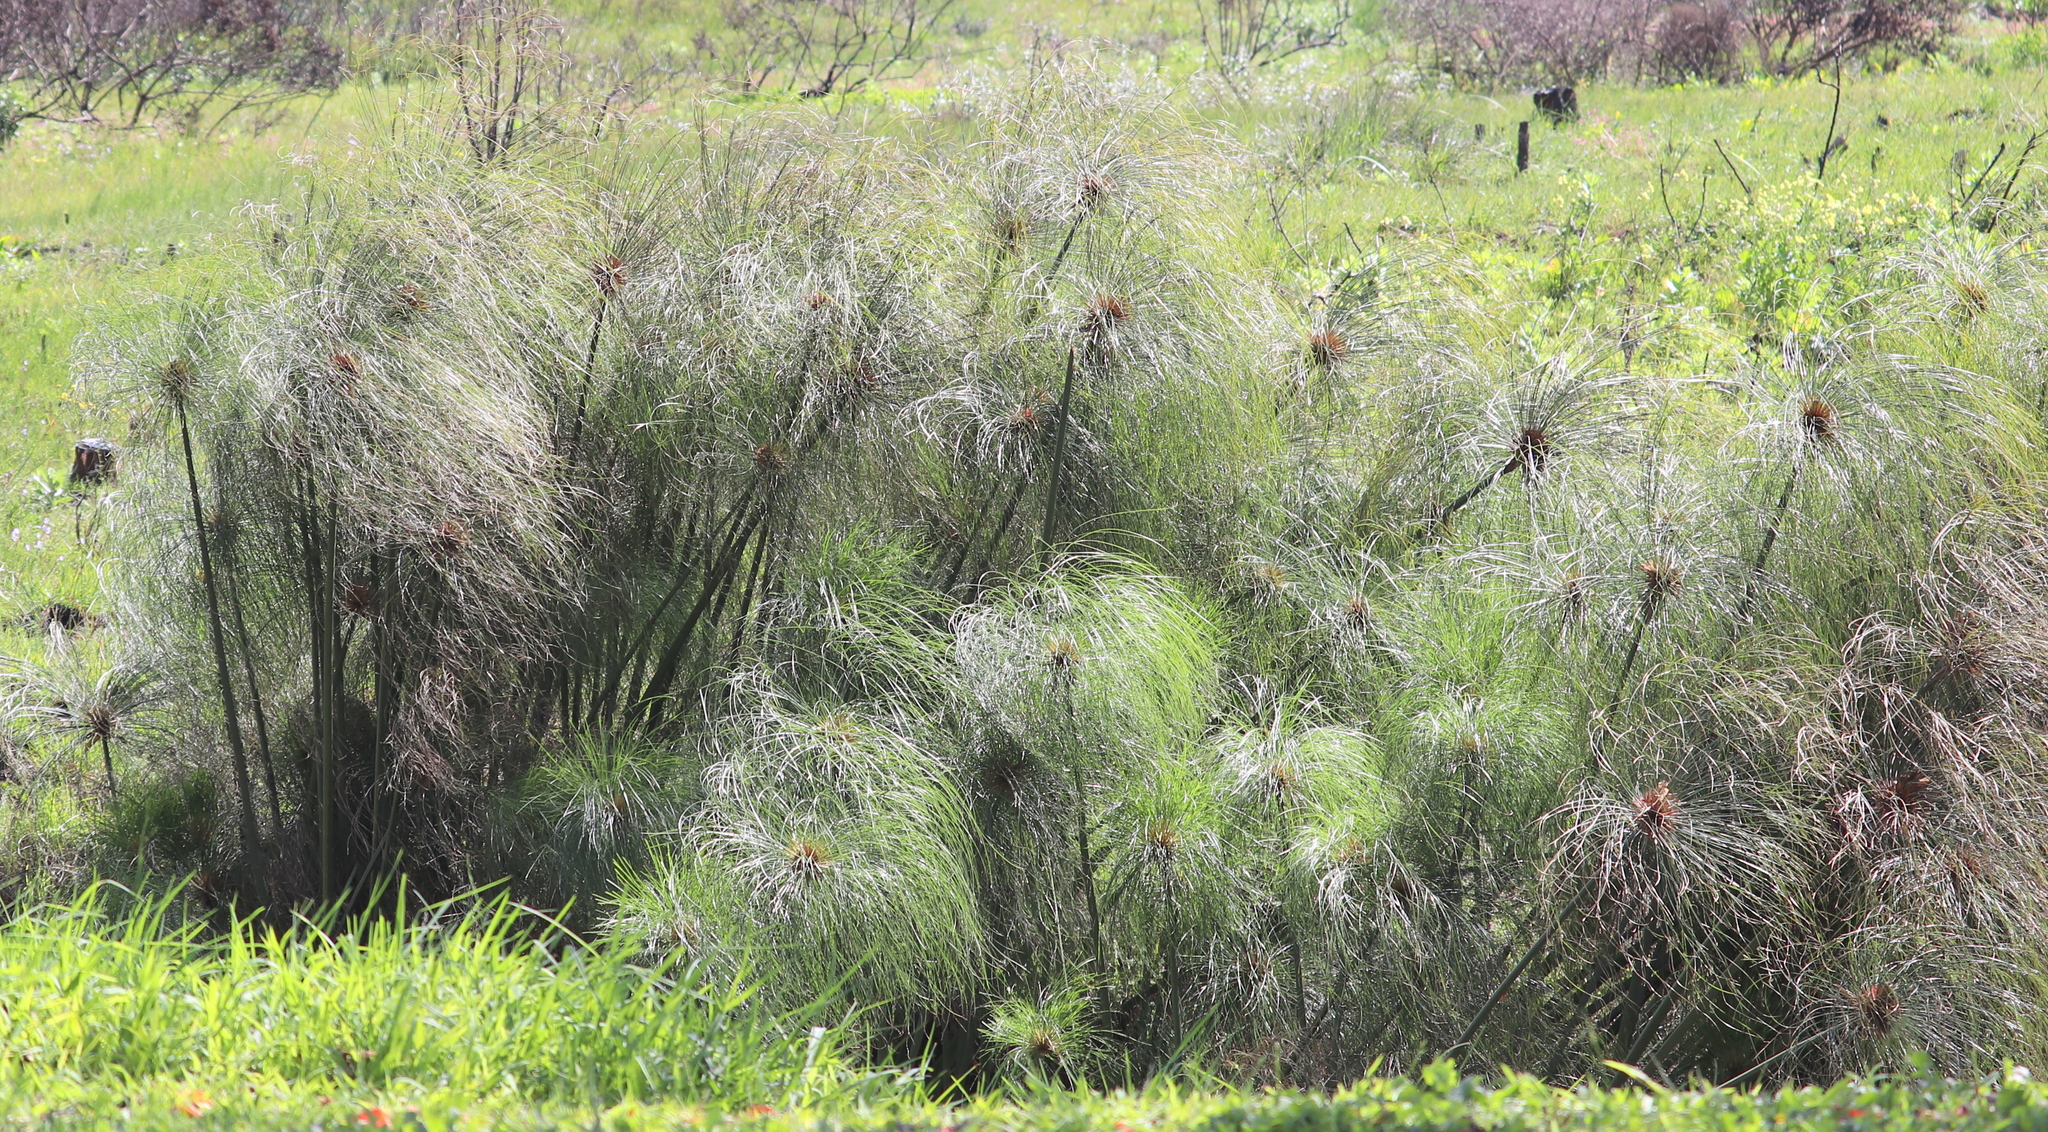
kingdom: Plantae
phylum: Tracheophyta
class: Liliopsida
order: Poales
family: Cyperaceae
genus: Cyperus
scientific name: Cyperus papyrus
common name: Papyrus
